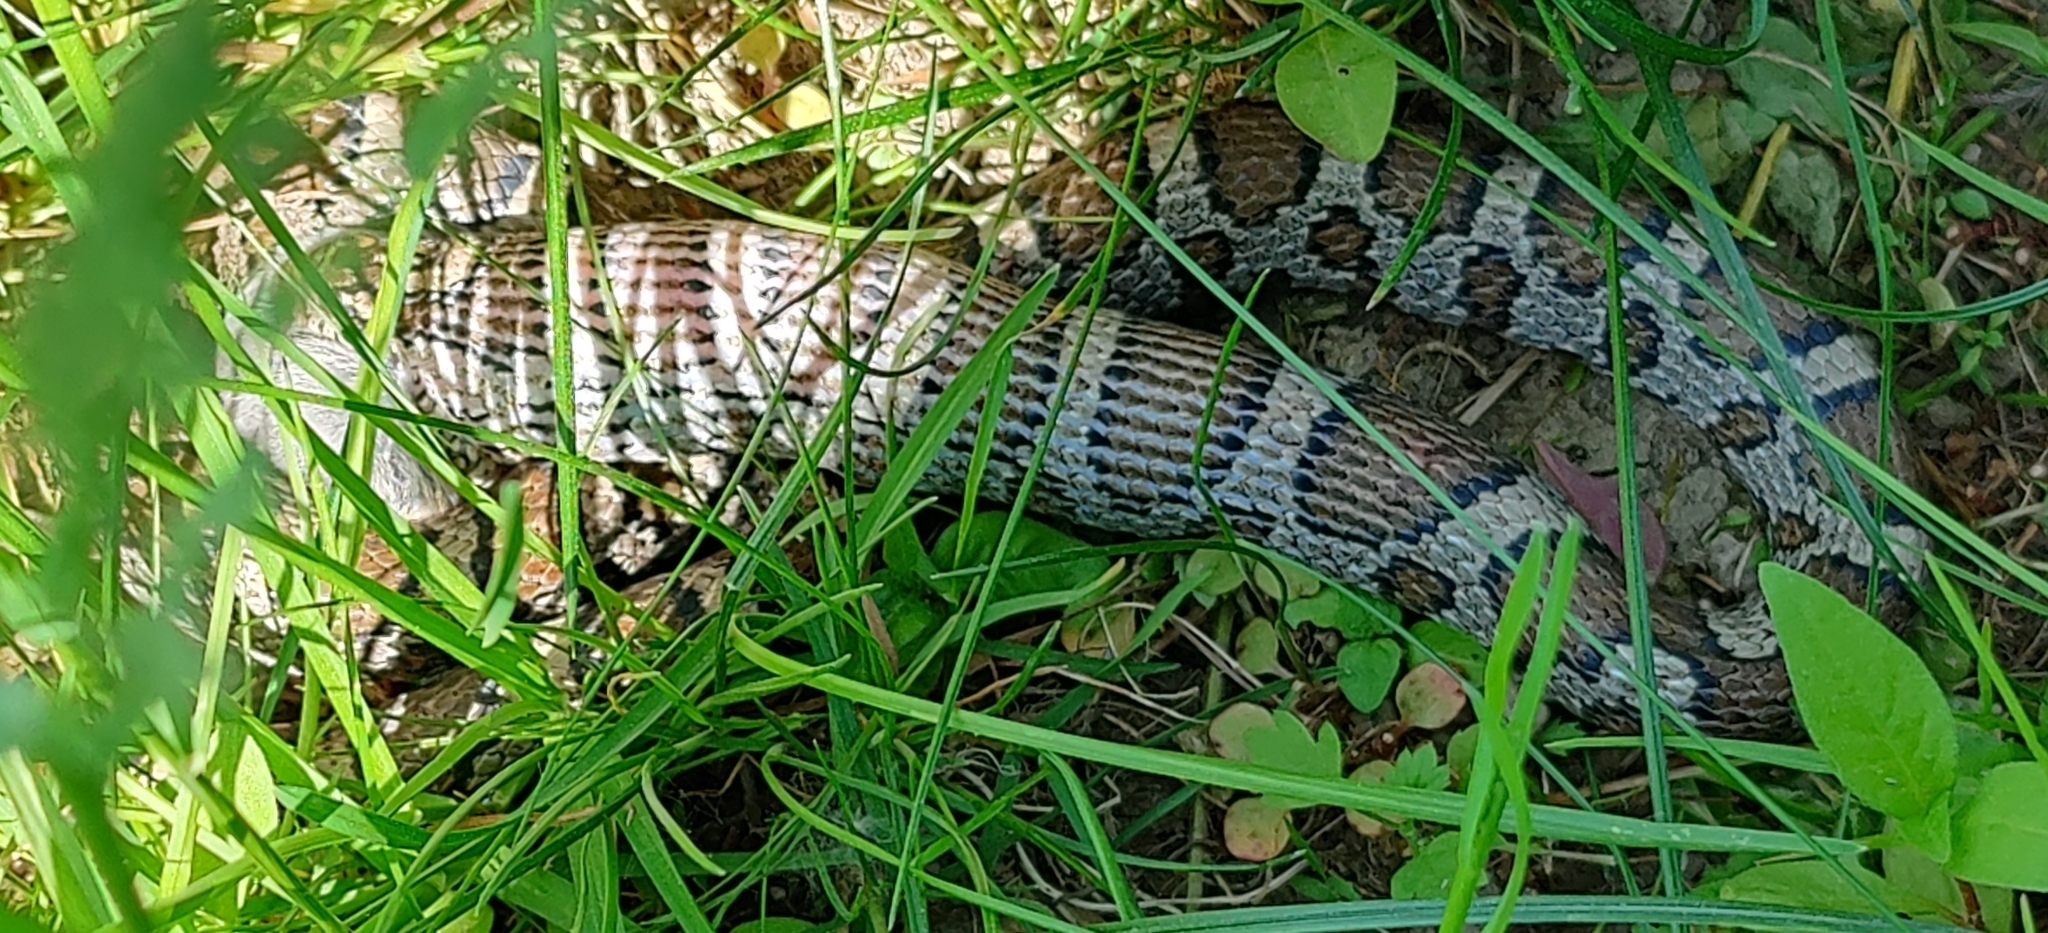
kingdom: Animalia
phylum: Chordata
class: Squamata
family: Colubridae
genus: Lampropeltis
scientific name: Lampropeltis triangulum
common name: Eastern milksnake
